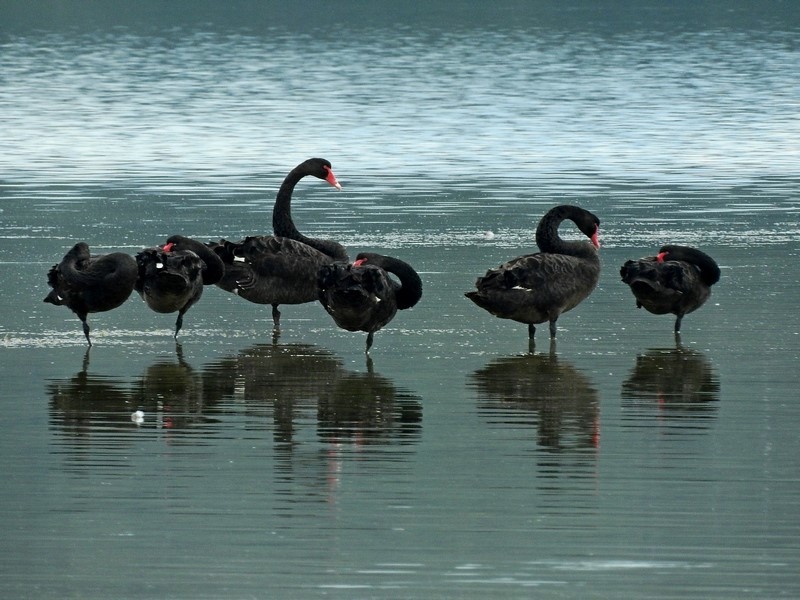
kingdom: Animalia
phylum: Chordata
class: Aves
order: Anseriformes
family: Anatidae
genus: Cygnus
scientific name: Cygnus atratus
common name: Black swan
